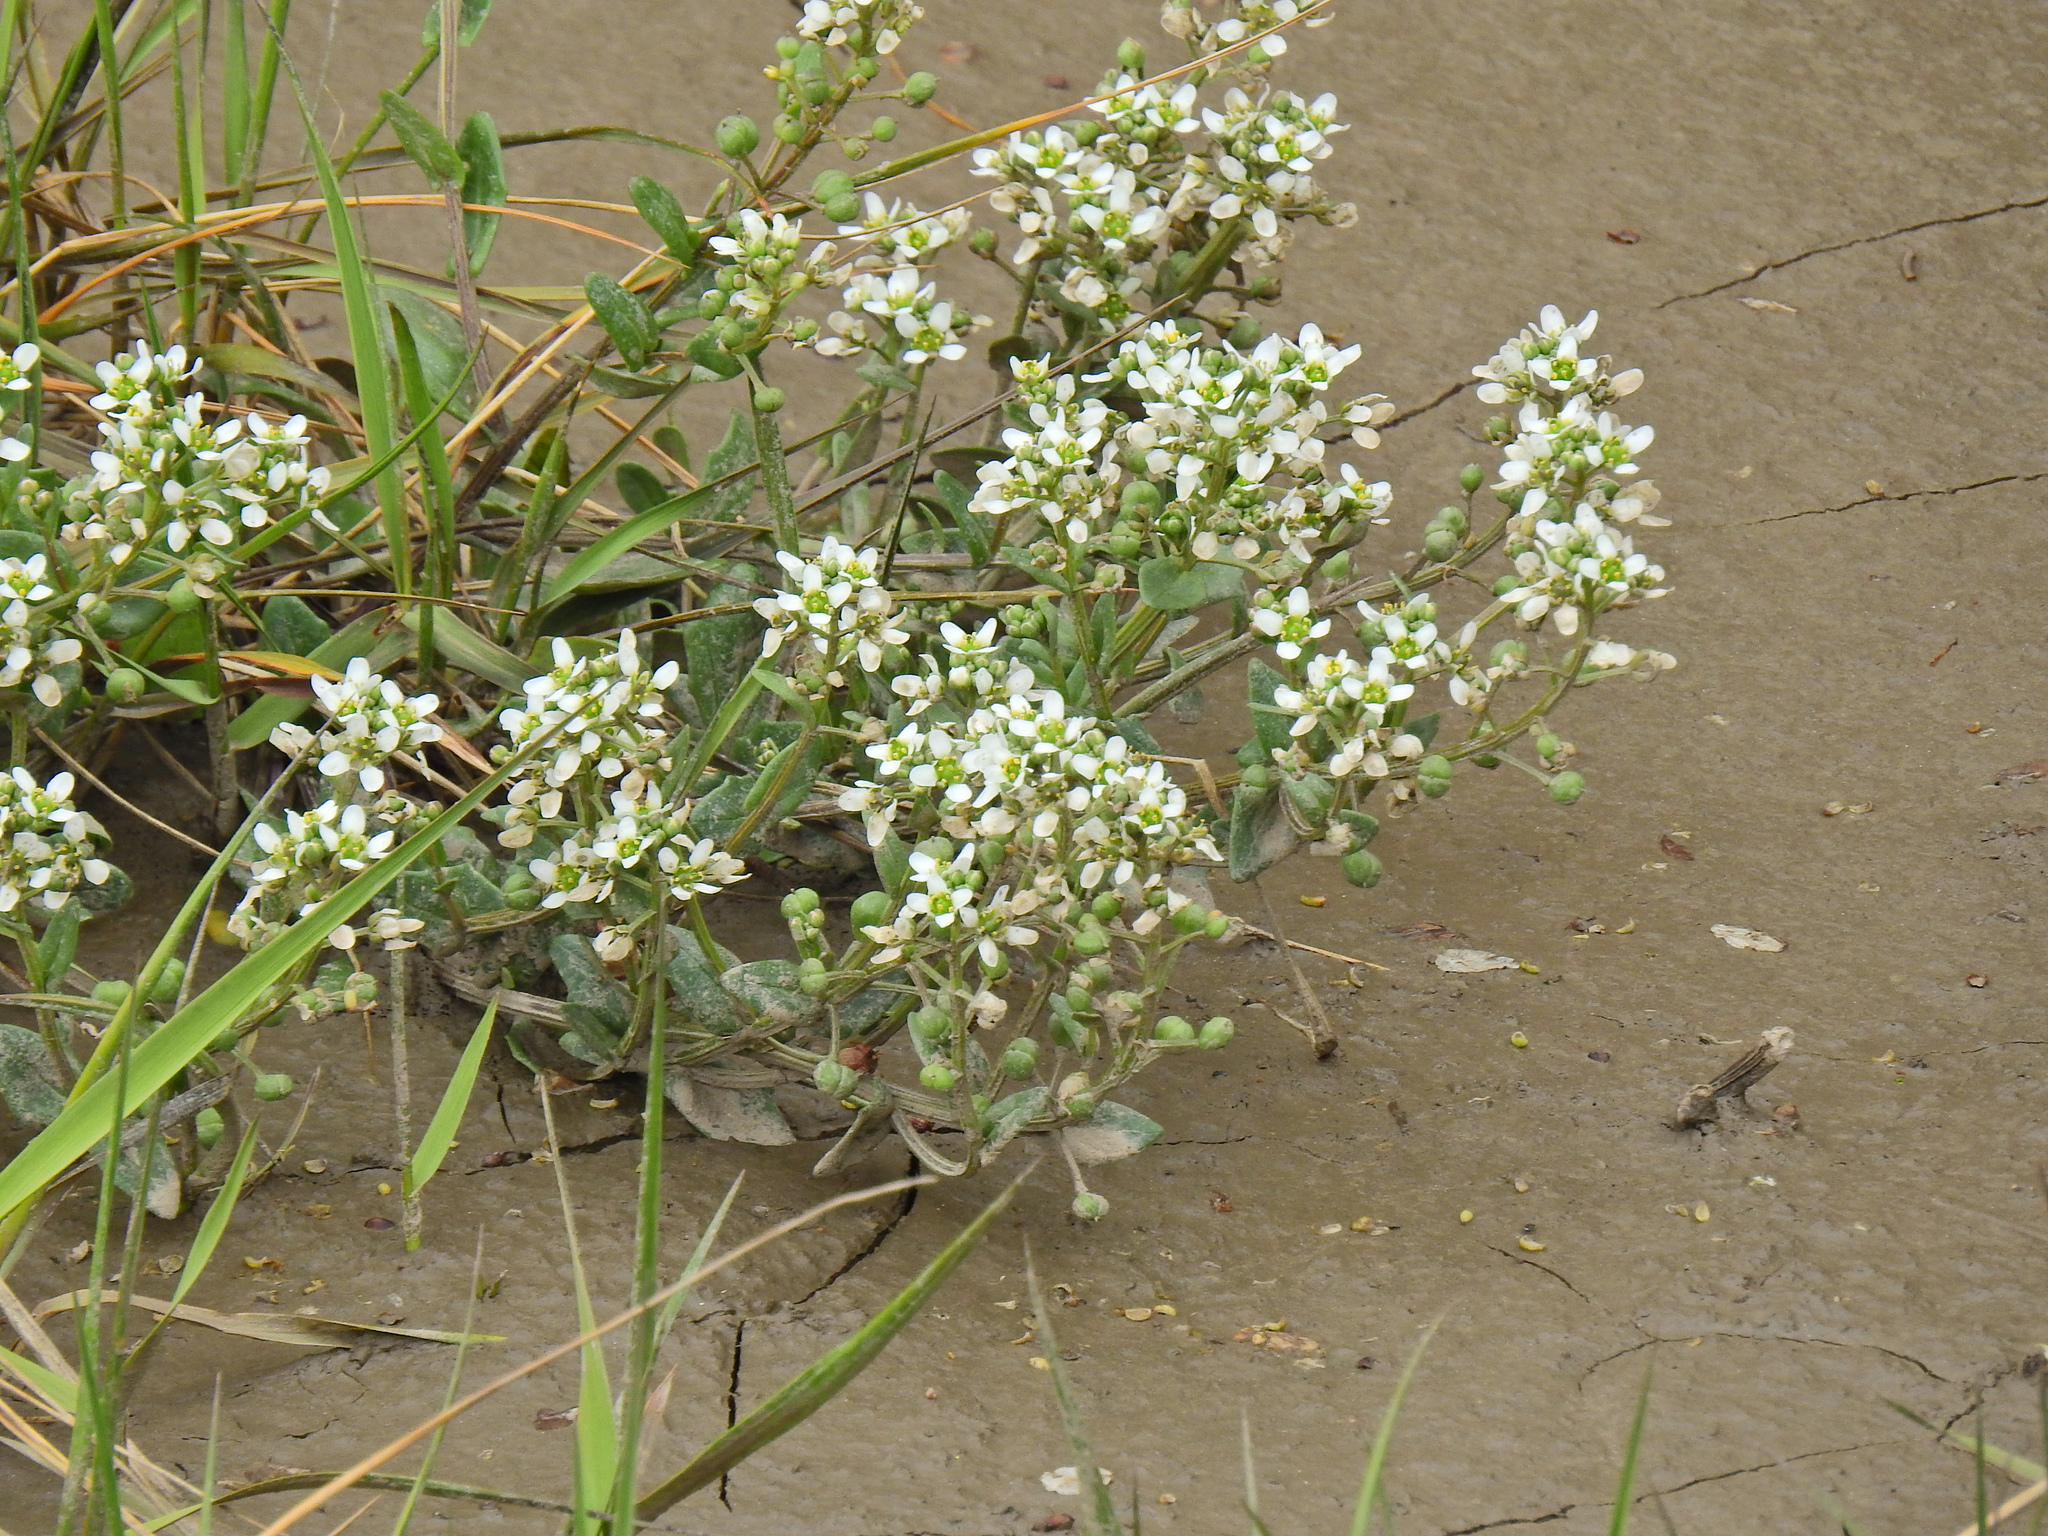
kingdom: Plantae
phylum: Tracheophyta
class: Magnoliopsida
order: Brassicales
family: Brassicaceae
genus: Cochlearia
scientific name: Cochlearia officinalis
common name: Scurvy-grass
